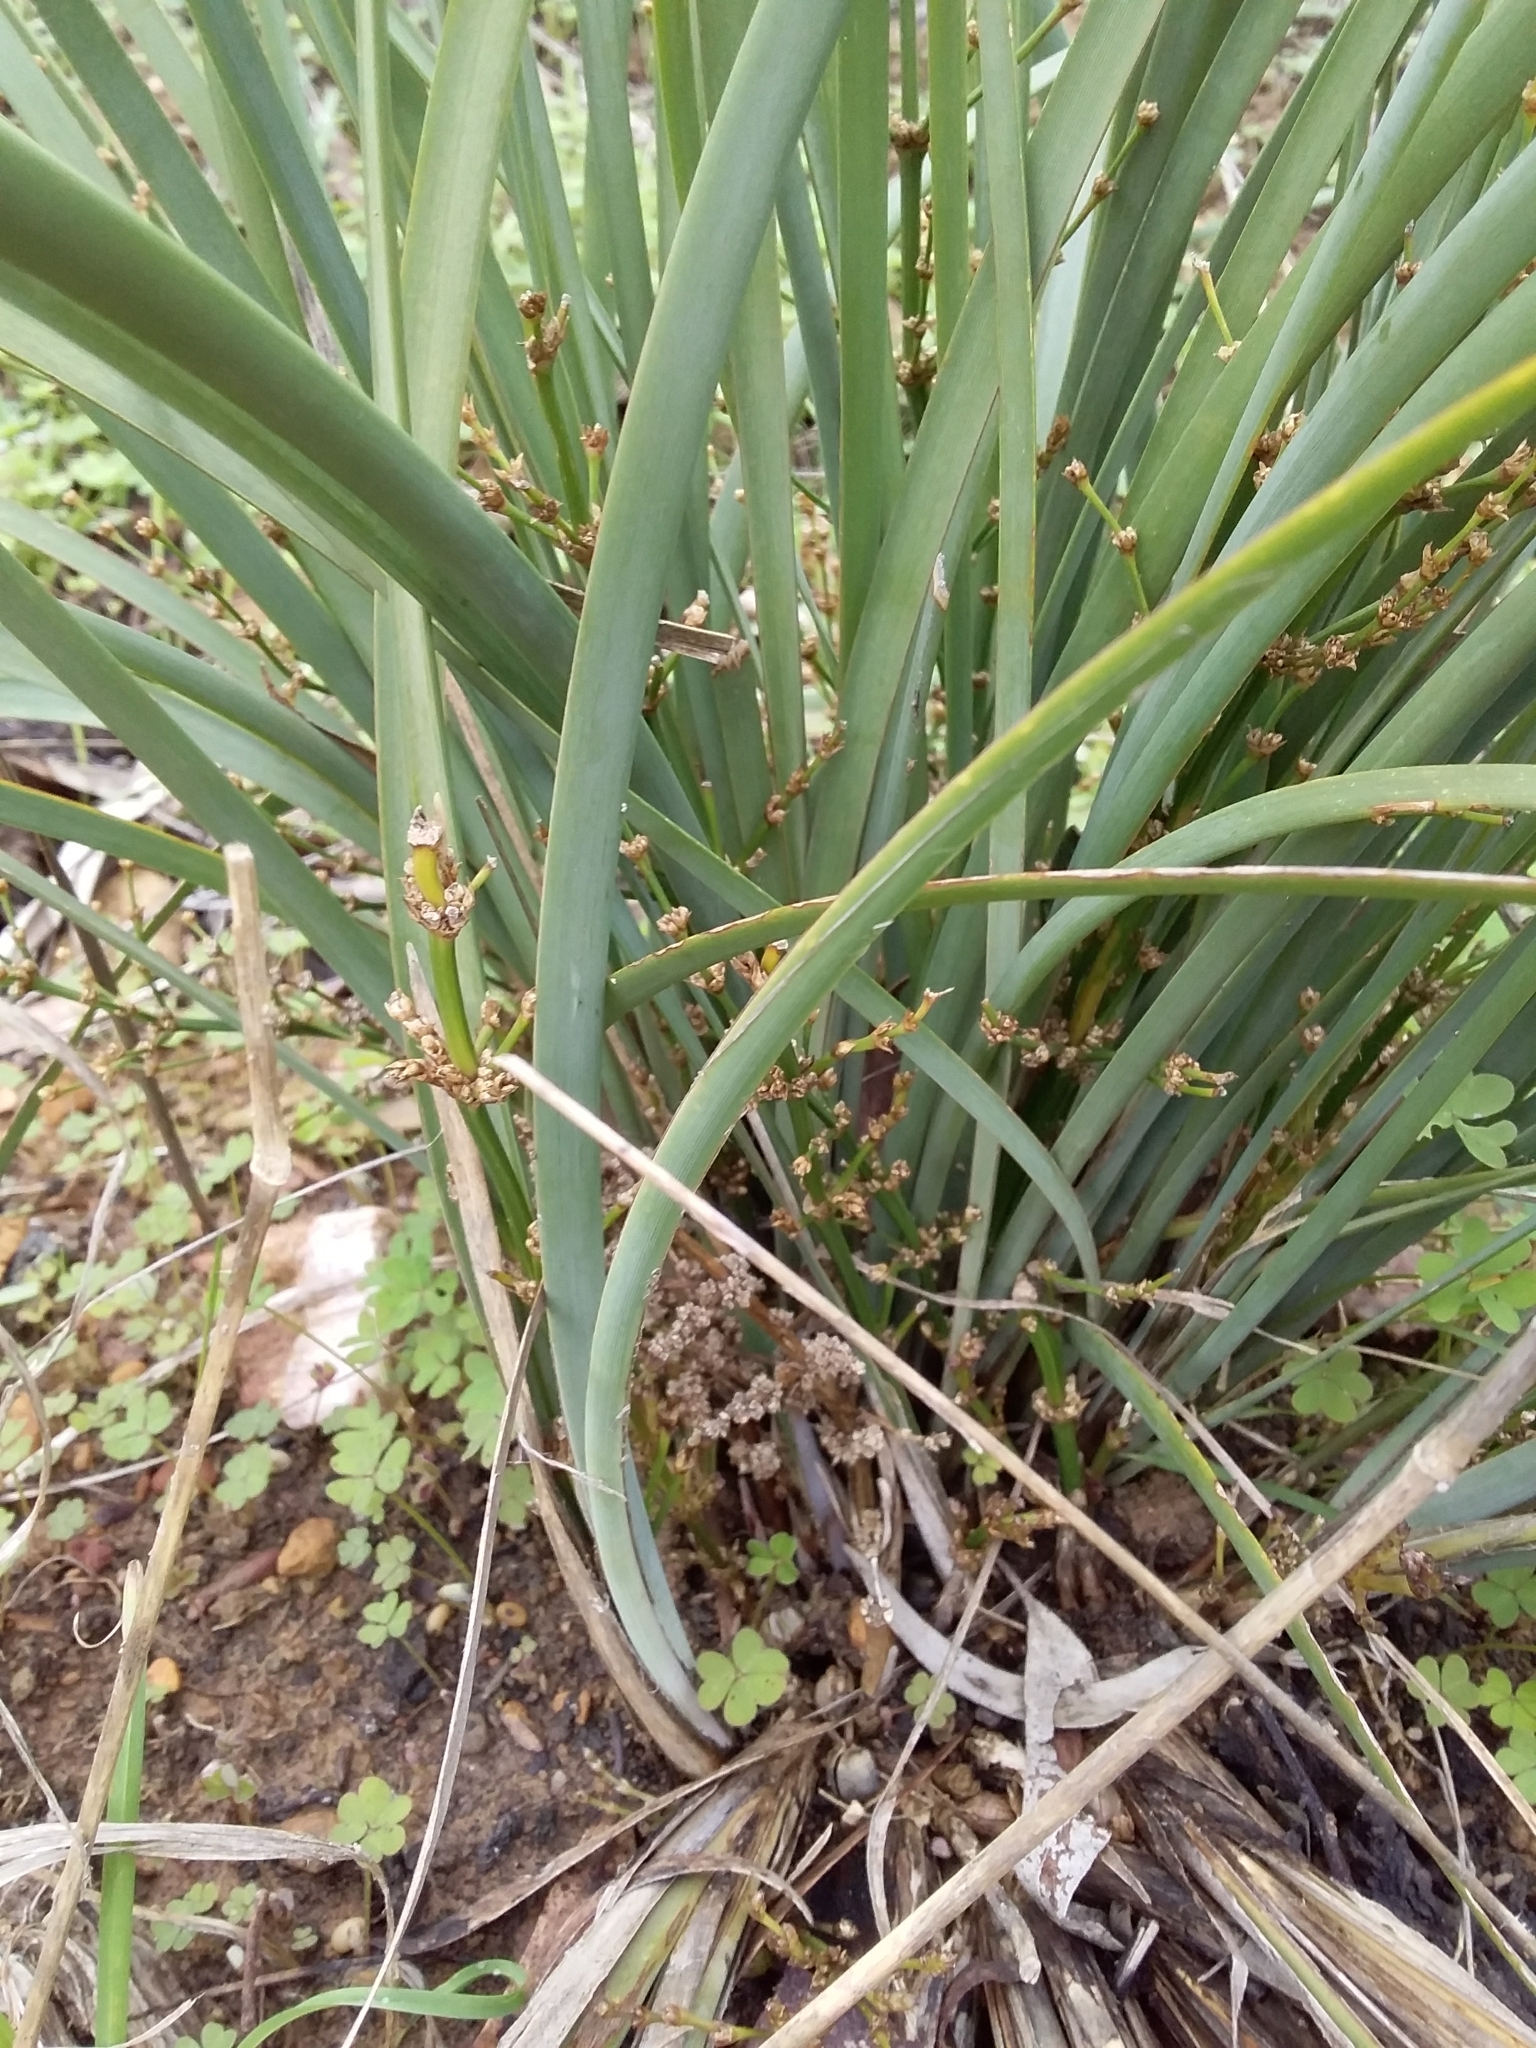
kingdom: Plantae
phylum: Tracheophyta
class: Liliopsida
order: Asparagales
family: Asparagaceae
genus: Lomandra
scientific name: Lomandra multiflora
